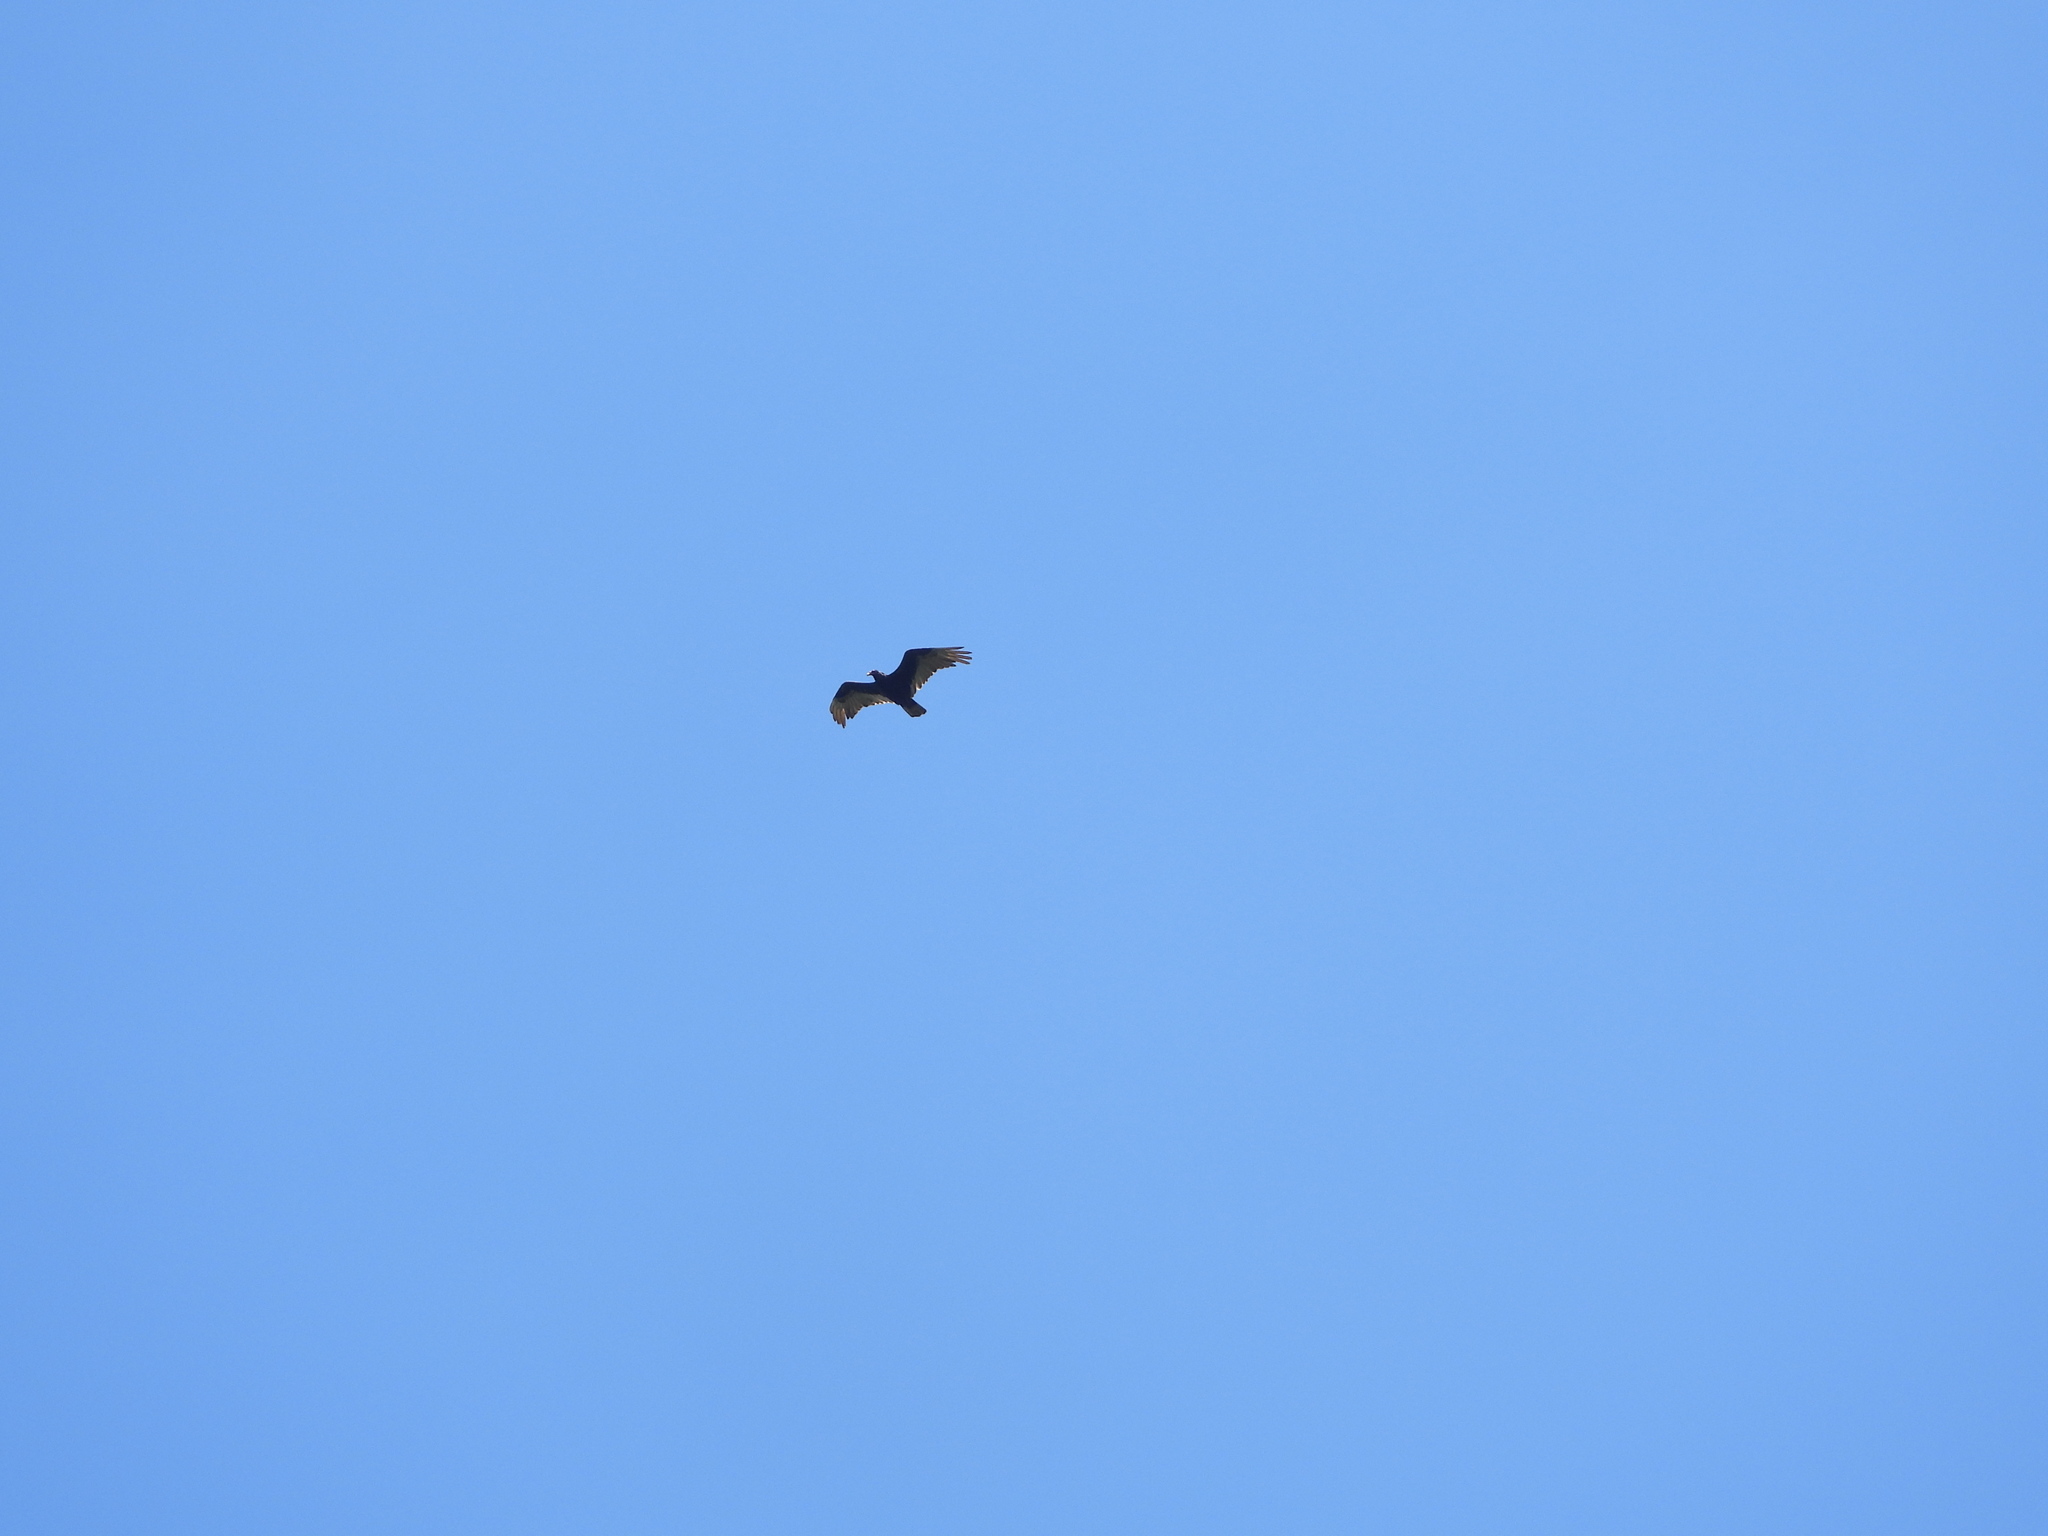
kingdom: Animalia
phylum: Chordata
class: Aves
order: Accipitriformes
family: Cathartidae
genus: Cathartes
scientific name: Cathartes aura
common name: Turkey vulture
